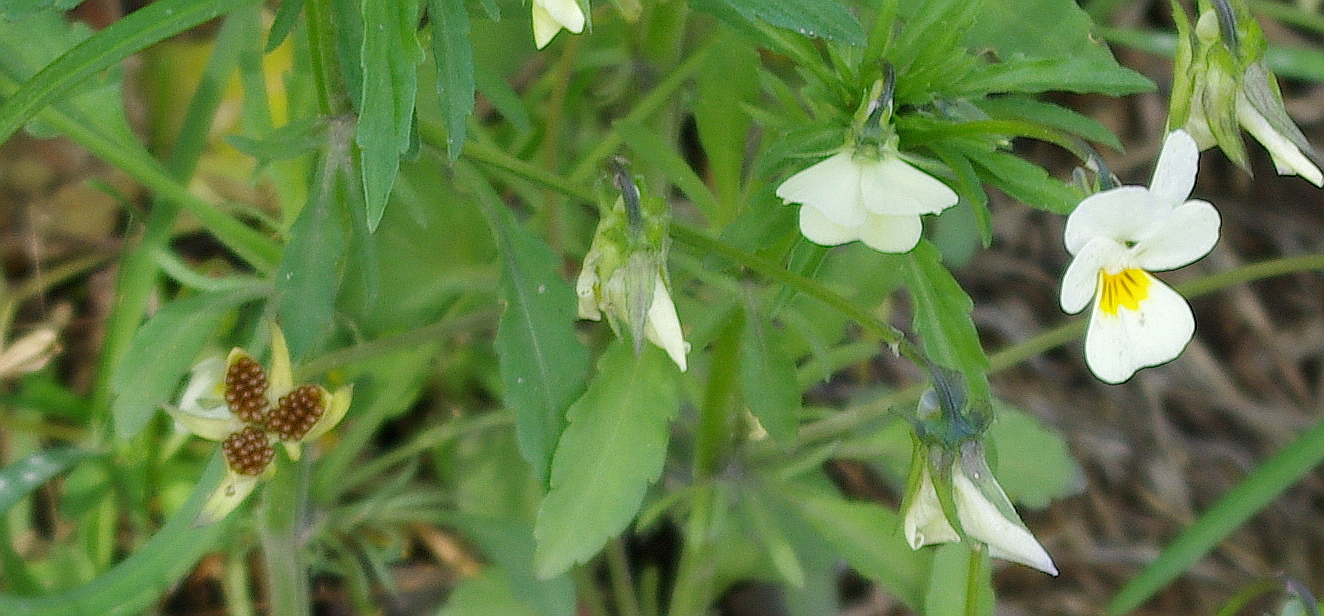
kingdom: Plantae
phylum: Tracheophyta
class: Magnoliopsida
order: Malpighiales
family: Violaceae
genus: Viola
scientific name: Viola arvensis
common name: Field pansy
